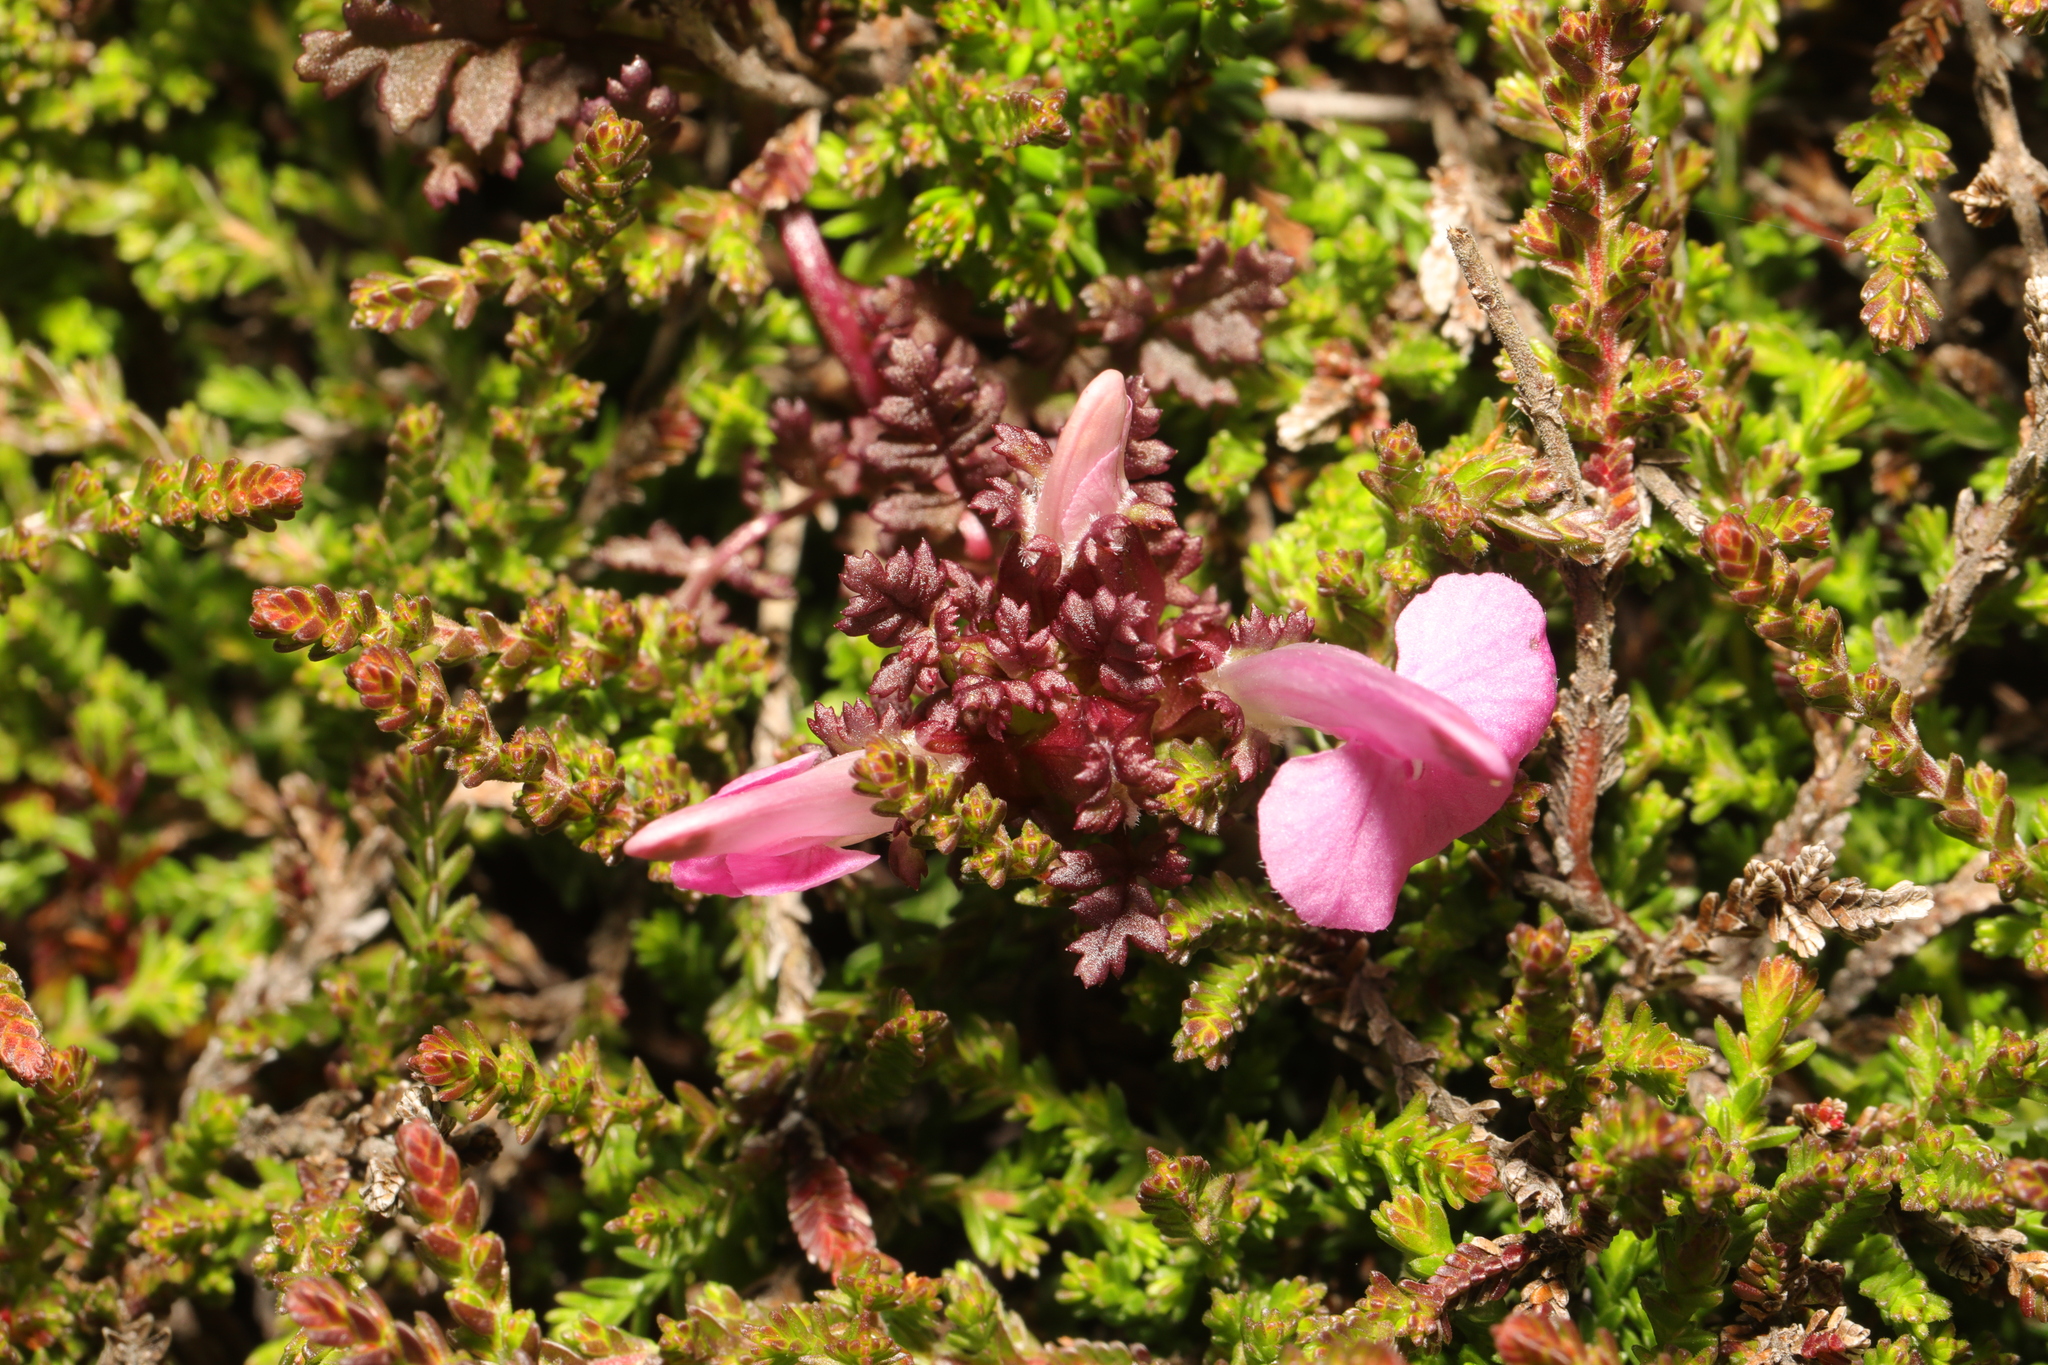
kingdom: Plantae
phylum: Tracheophyta
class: Magnoliopsida
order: Lamiales
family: Orobanchaceae
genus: Pedicularis
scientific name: Pedicularis sylvatica
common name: Lousewort
